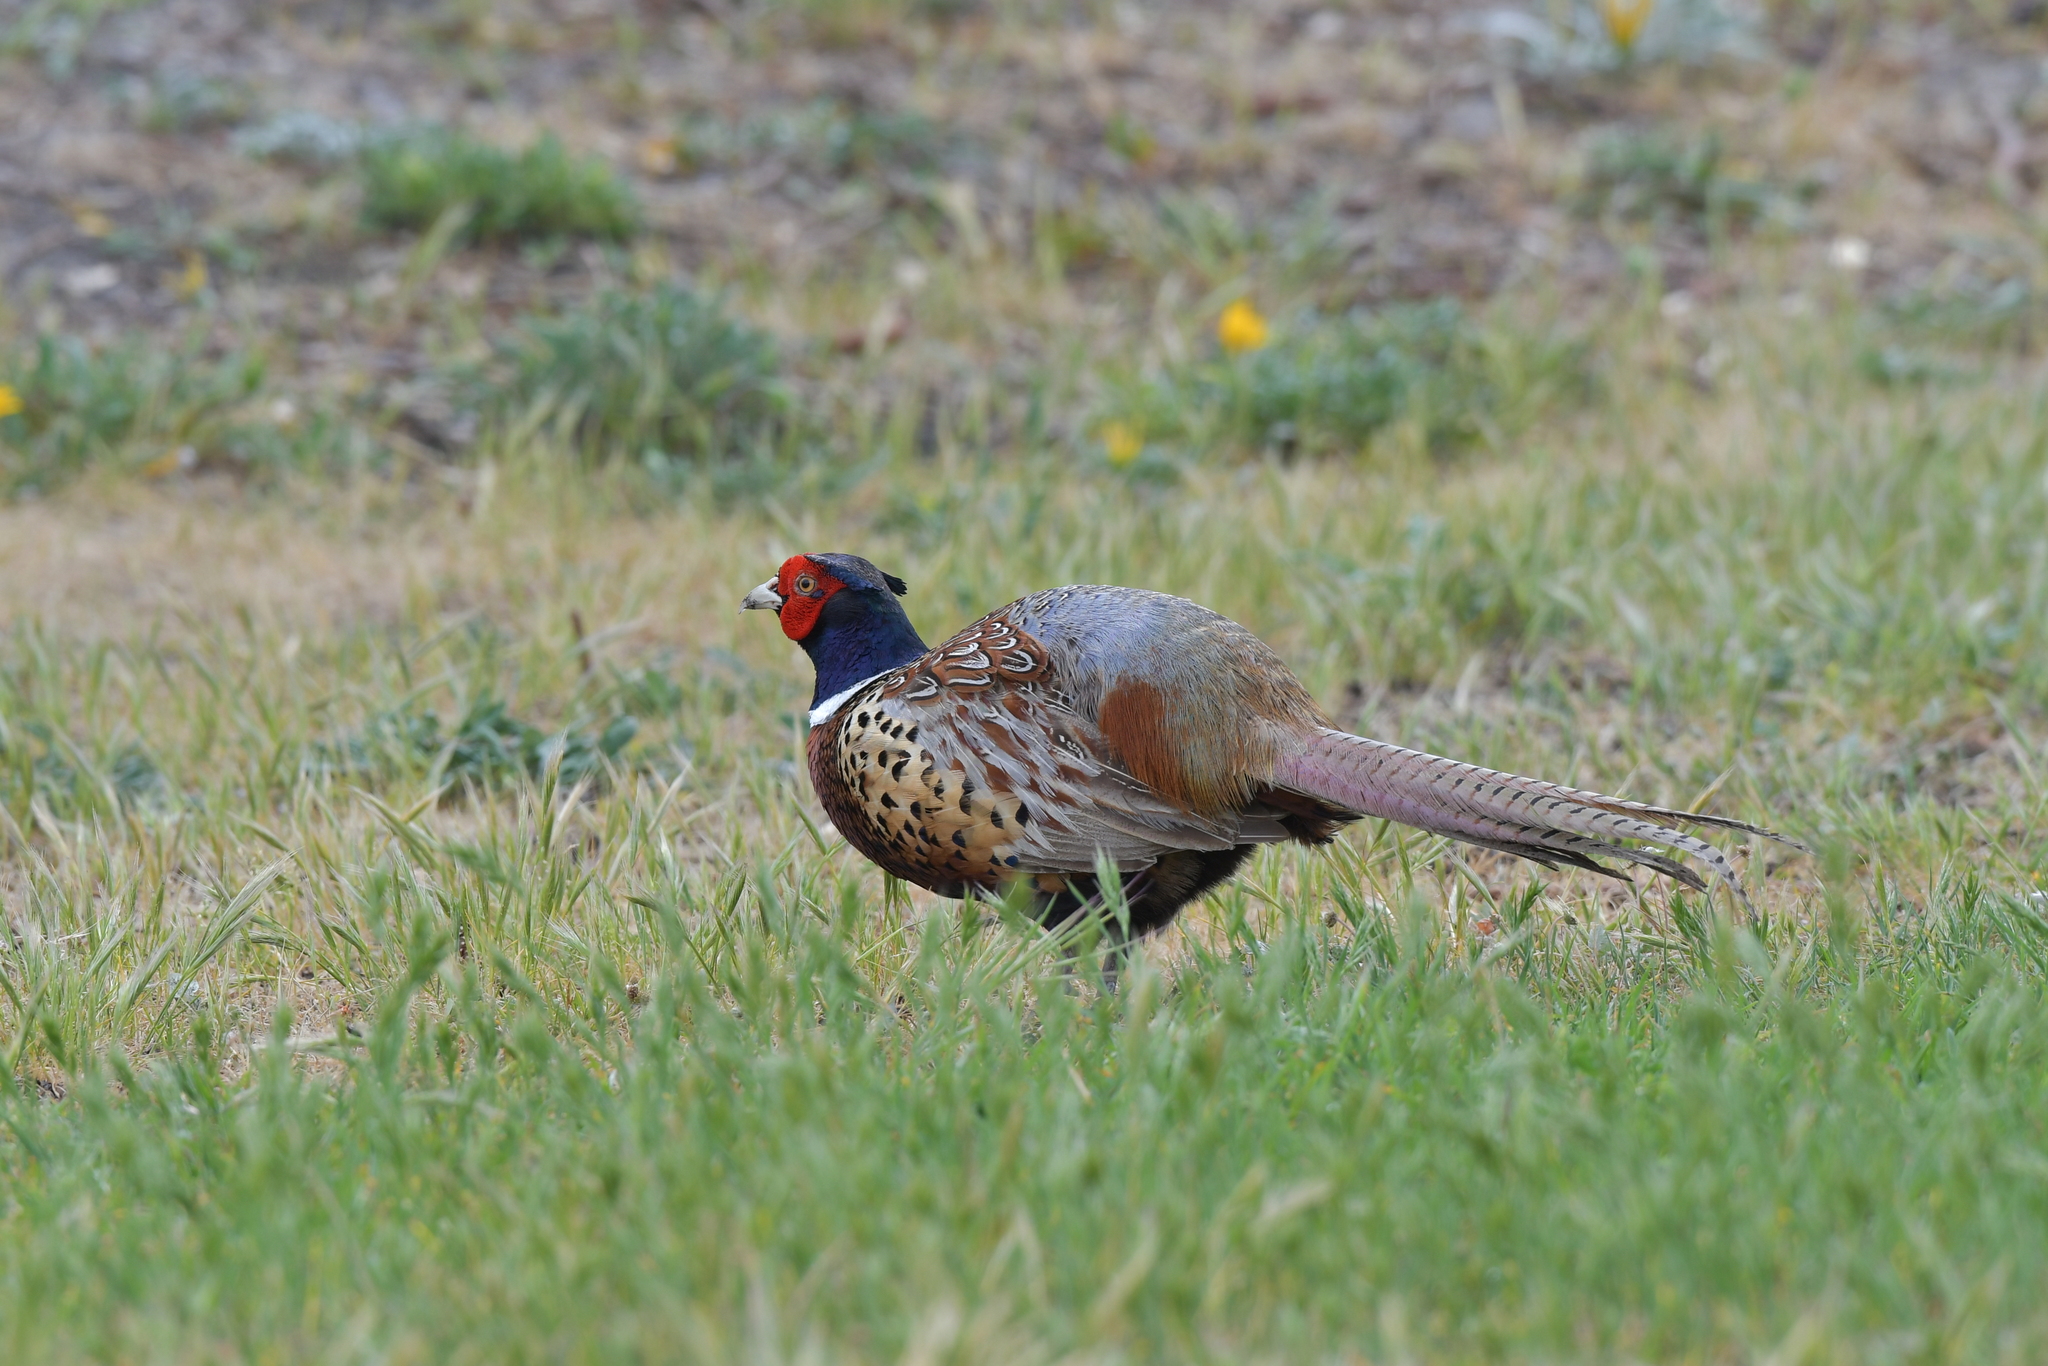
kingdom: Animalia
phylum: Chordata
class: Aves
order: Galliformes
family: Phasianidae
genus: Phasianus
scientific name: Phasianus colchicus
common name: Common pheasant
